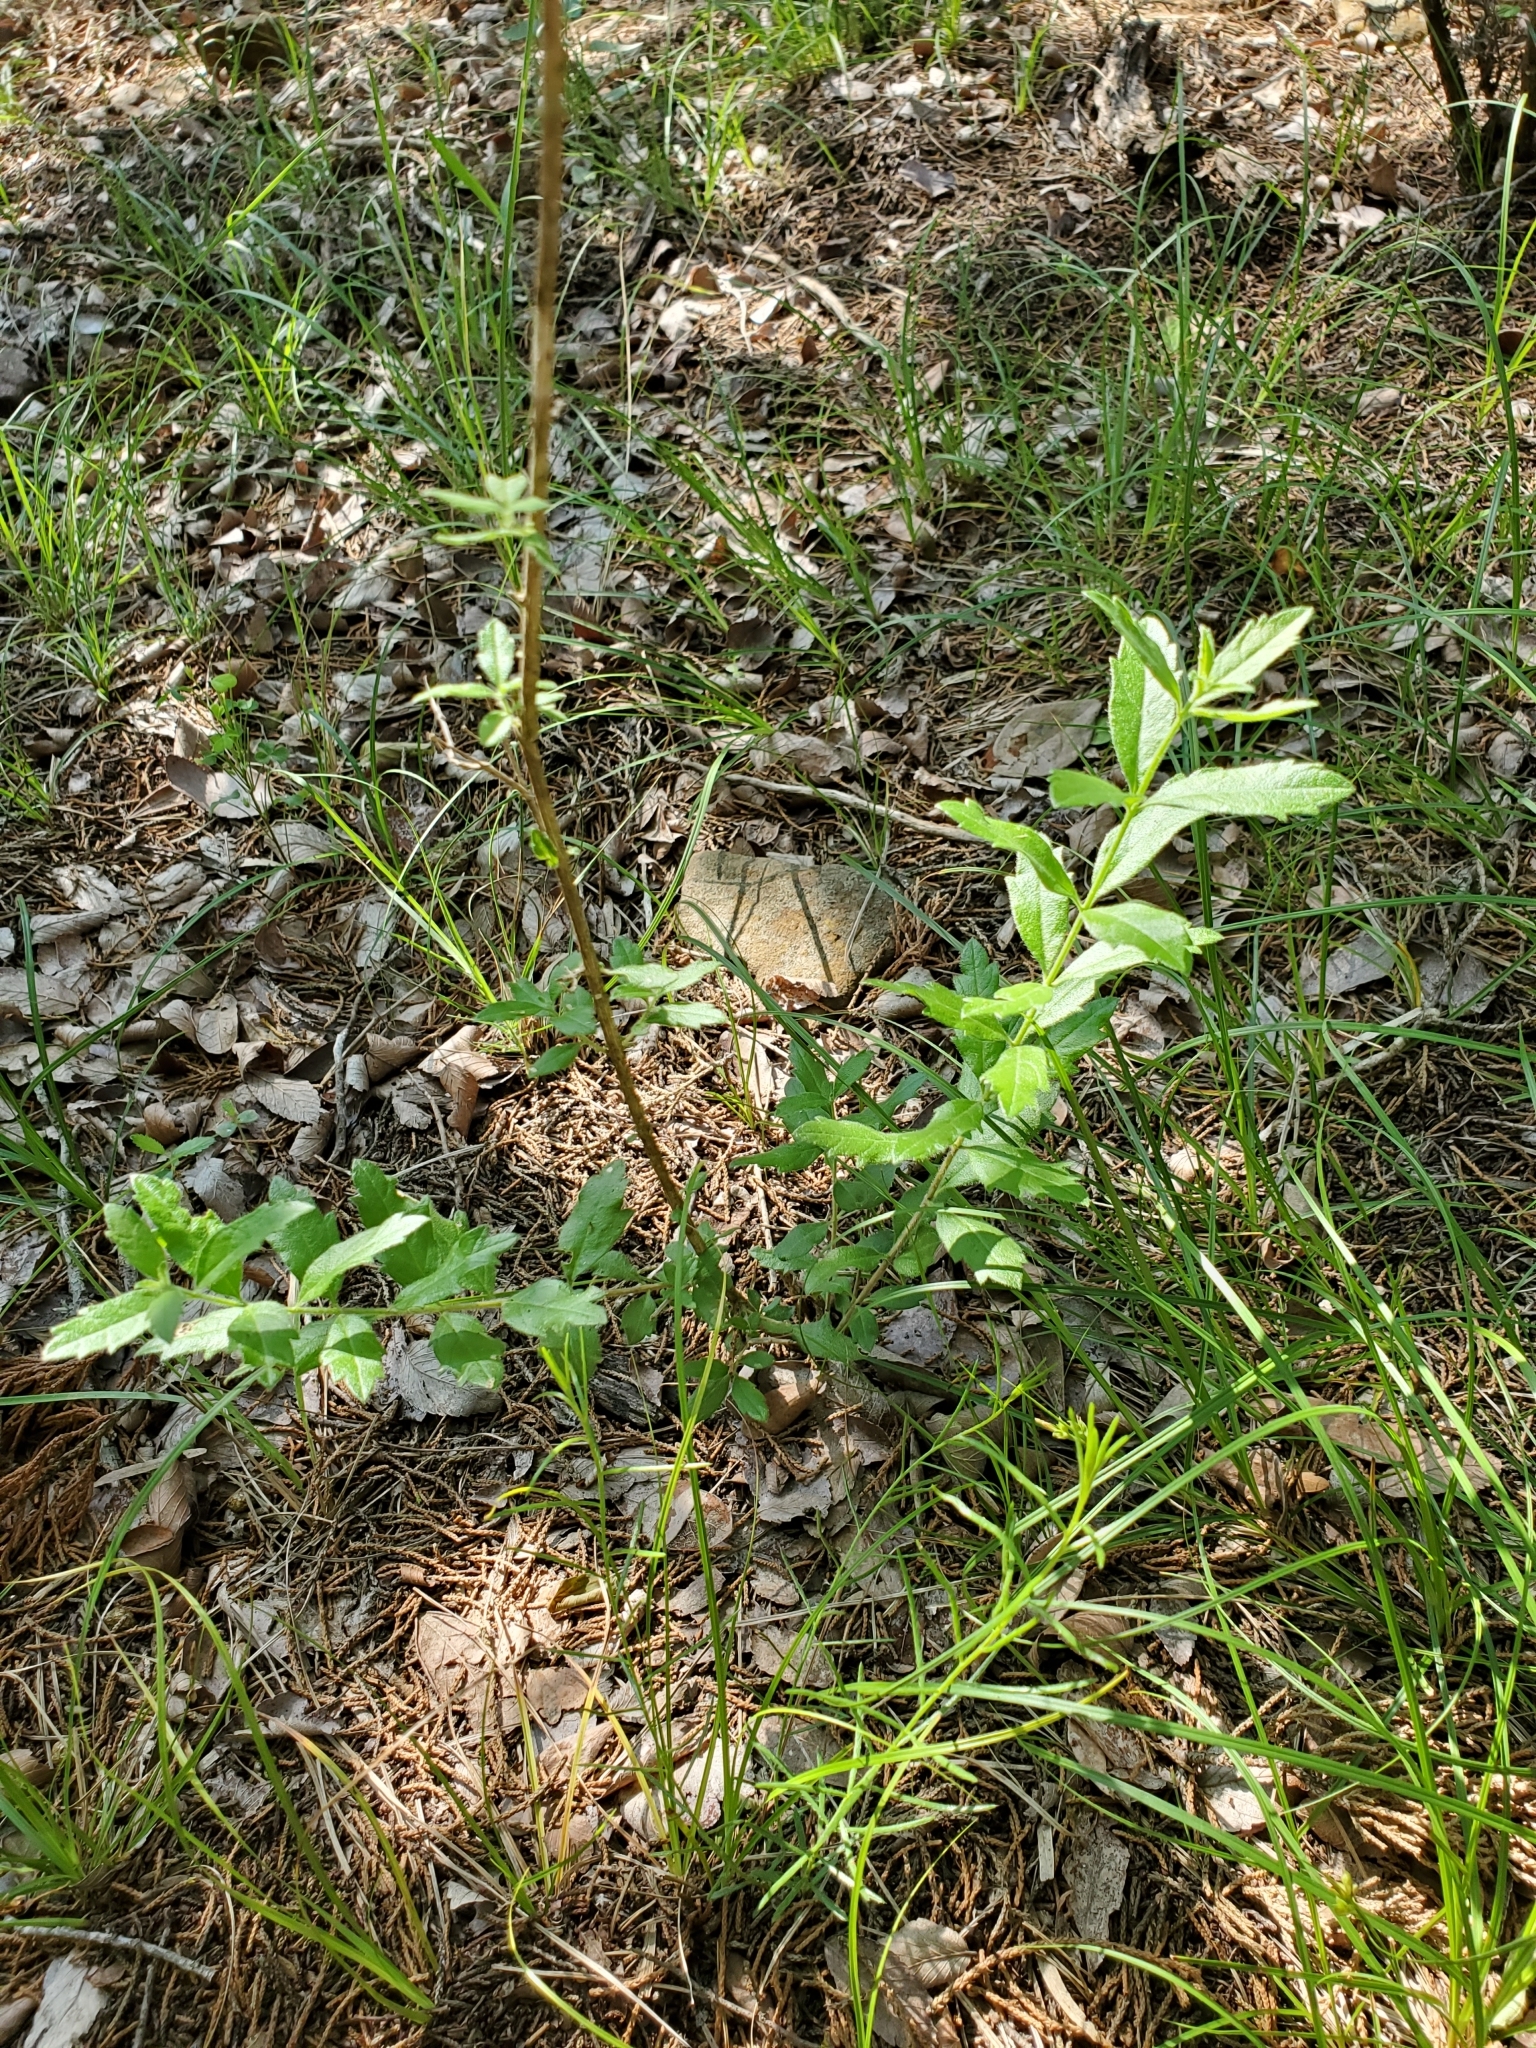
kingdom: Plantae
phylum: Tracheophyta
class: Magnoliopsida
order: Lamiales
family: Verbenaceae
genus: Aloysia
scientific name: Aloysia gratissima
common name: Common bee-brush
